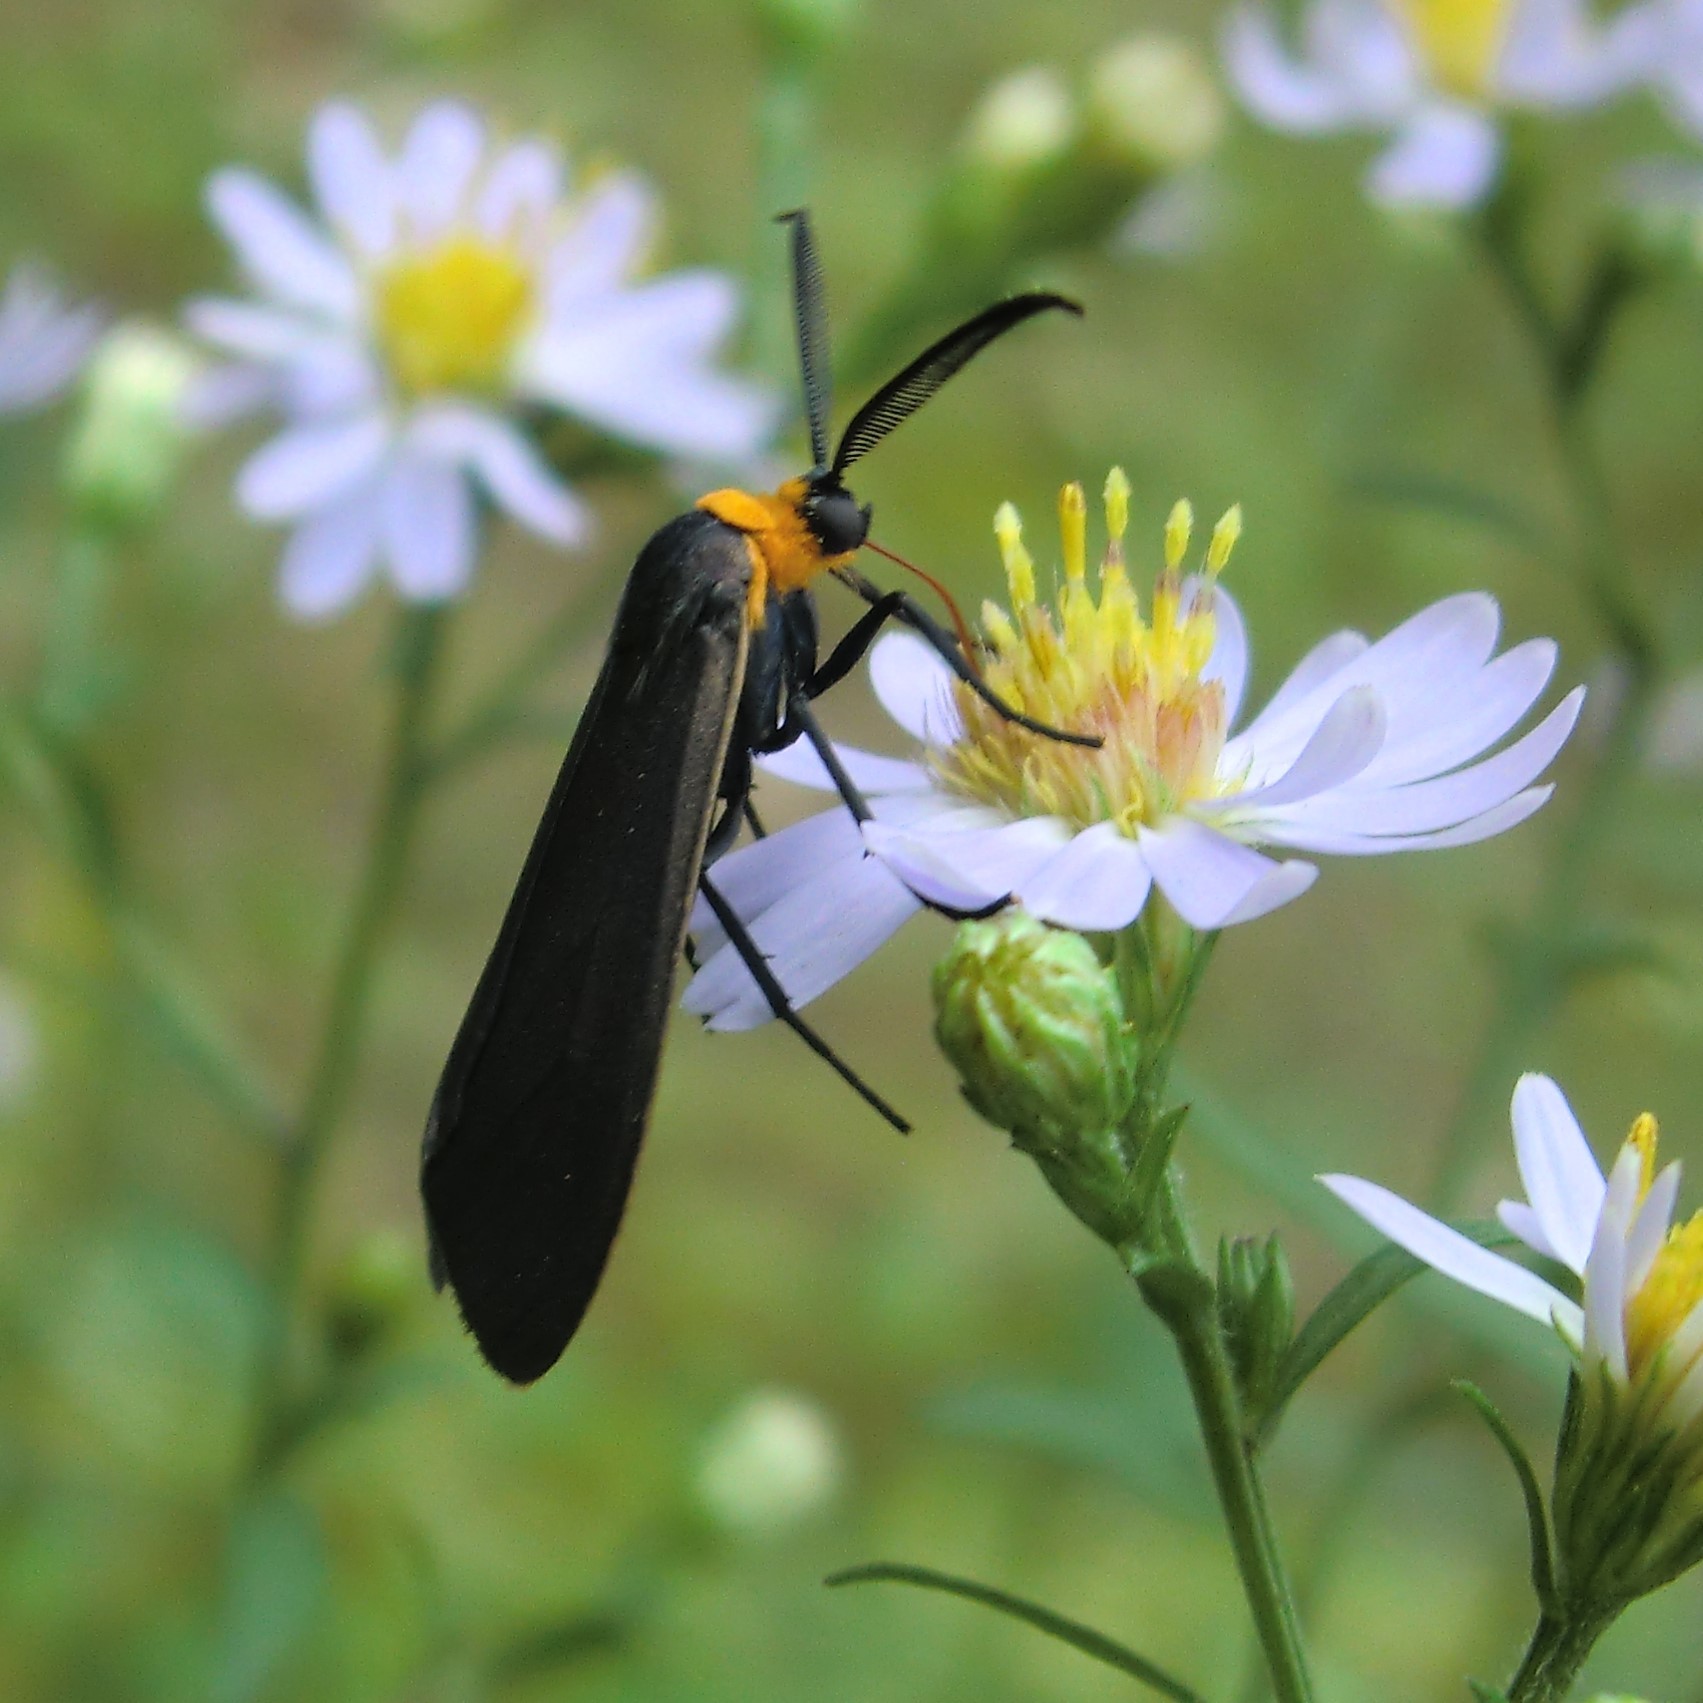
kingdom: Animalia
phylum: Arthropoda
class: Insecta
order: Lepidoptera
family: Erebidae
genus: Cisseps
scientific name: Cisseps fulvicollis
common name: Yellow-collared scape moth
